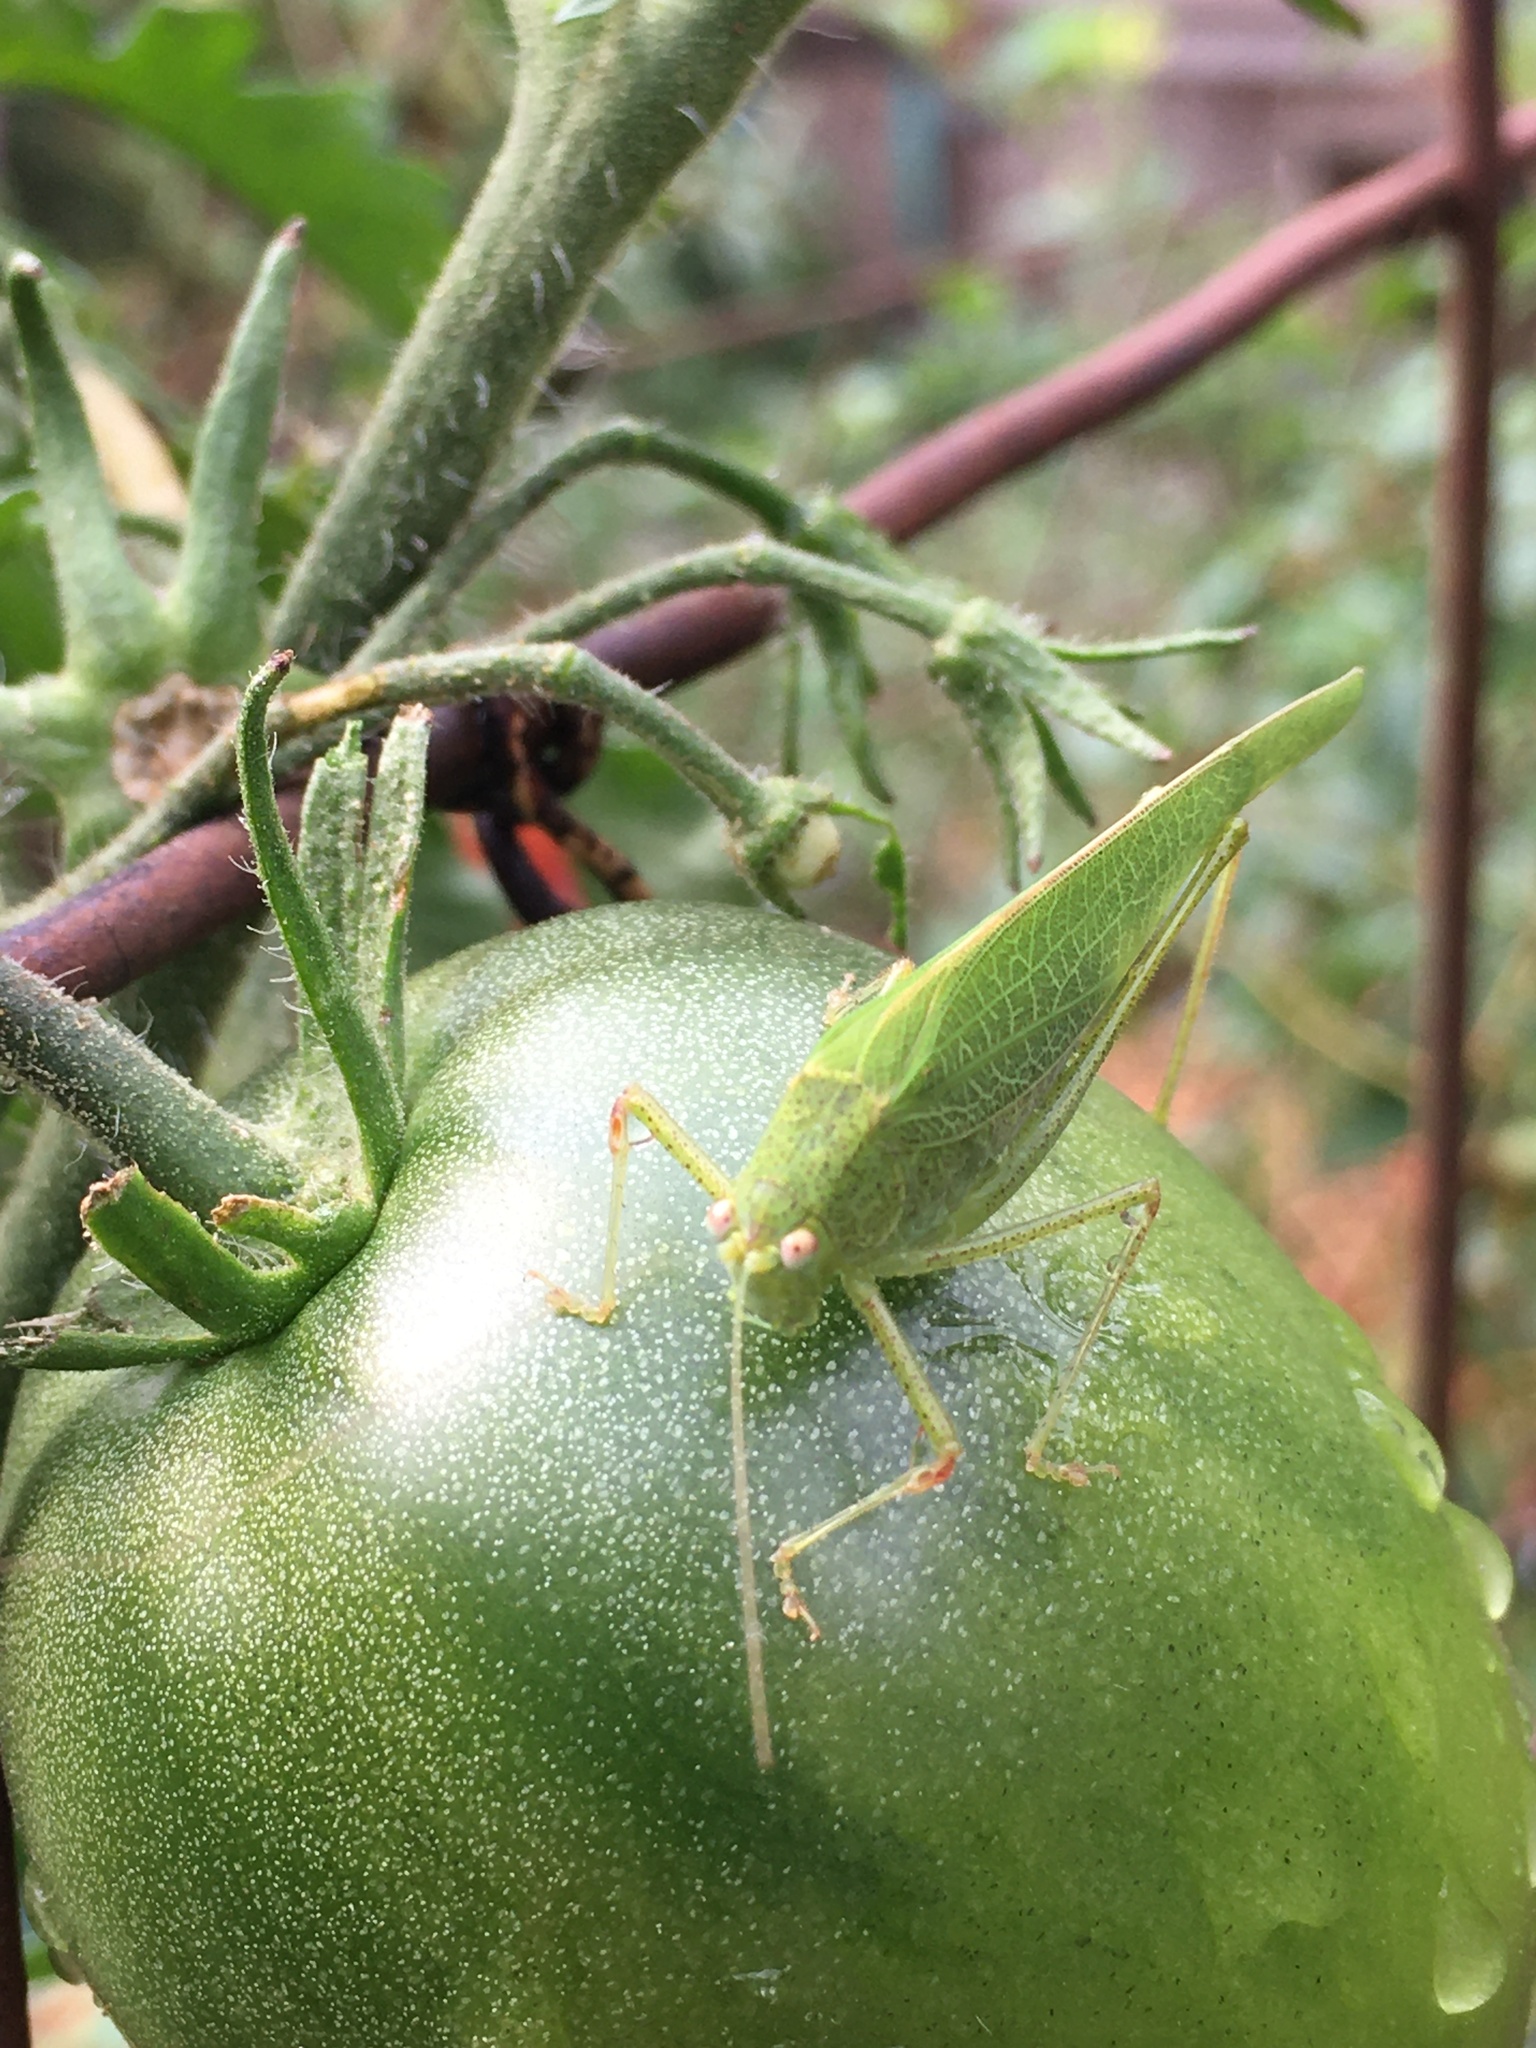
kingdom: Animalia
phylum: Arthropoda
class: Insecta
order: Orthoptera
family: Tettigoniidae
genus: Phaneroptera
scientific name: Phaneroptera nana
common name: Southern sickle bush-cricket
